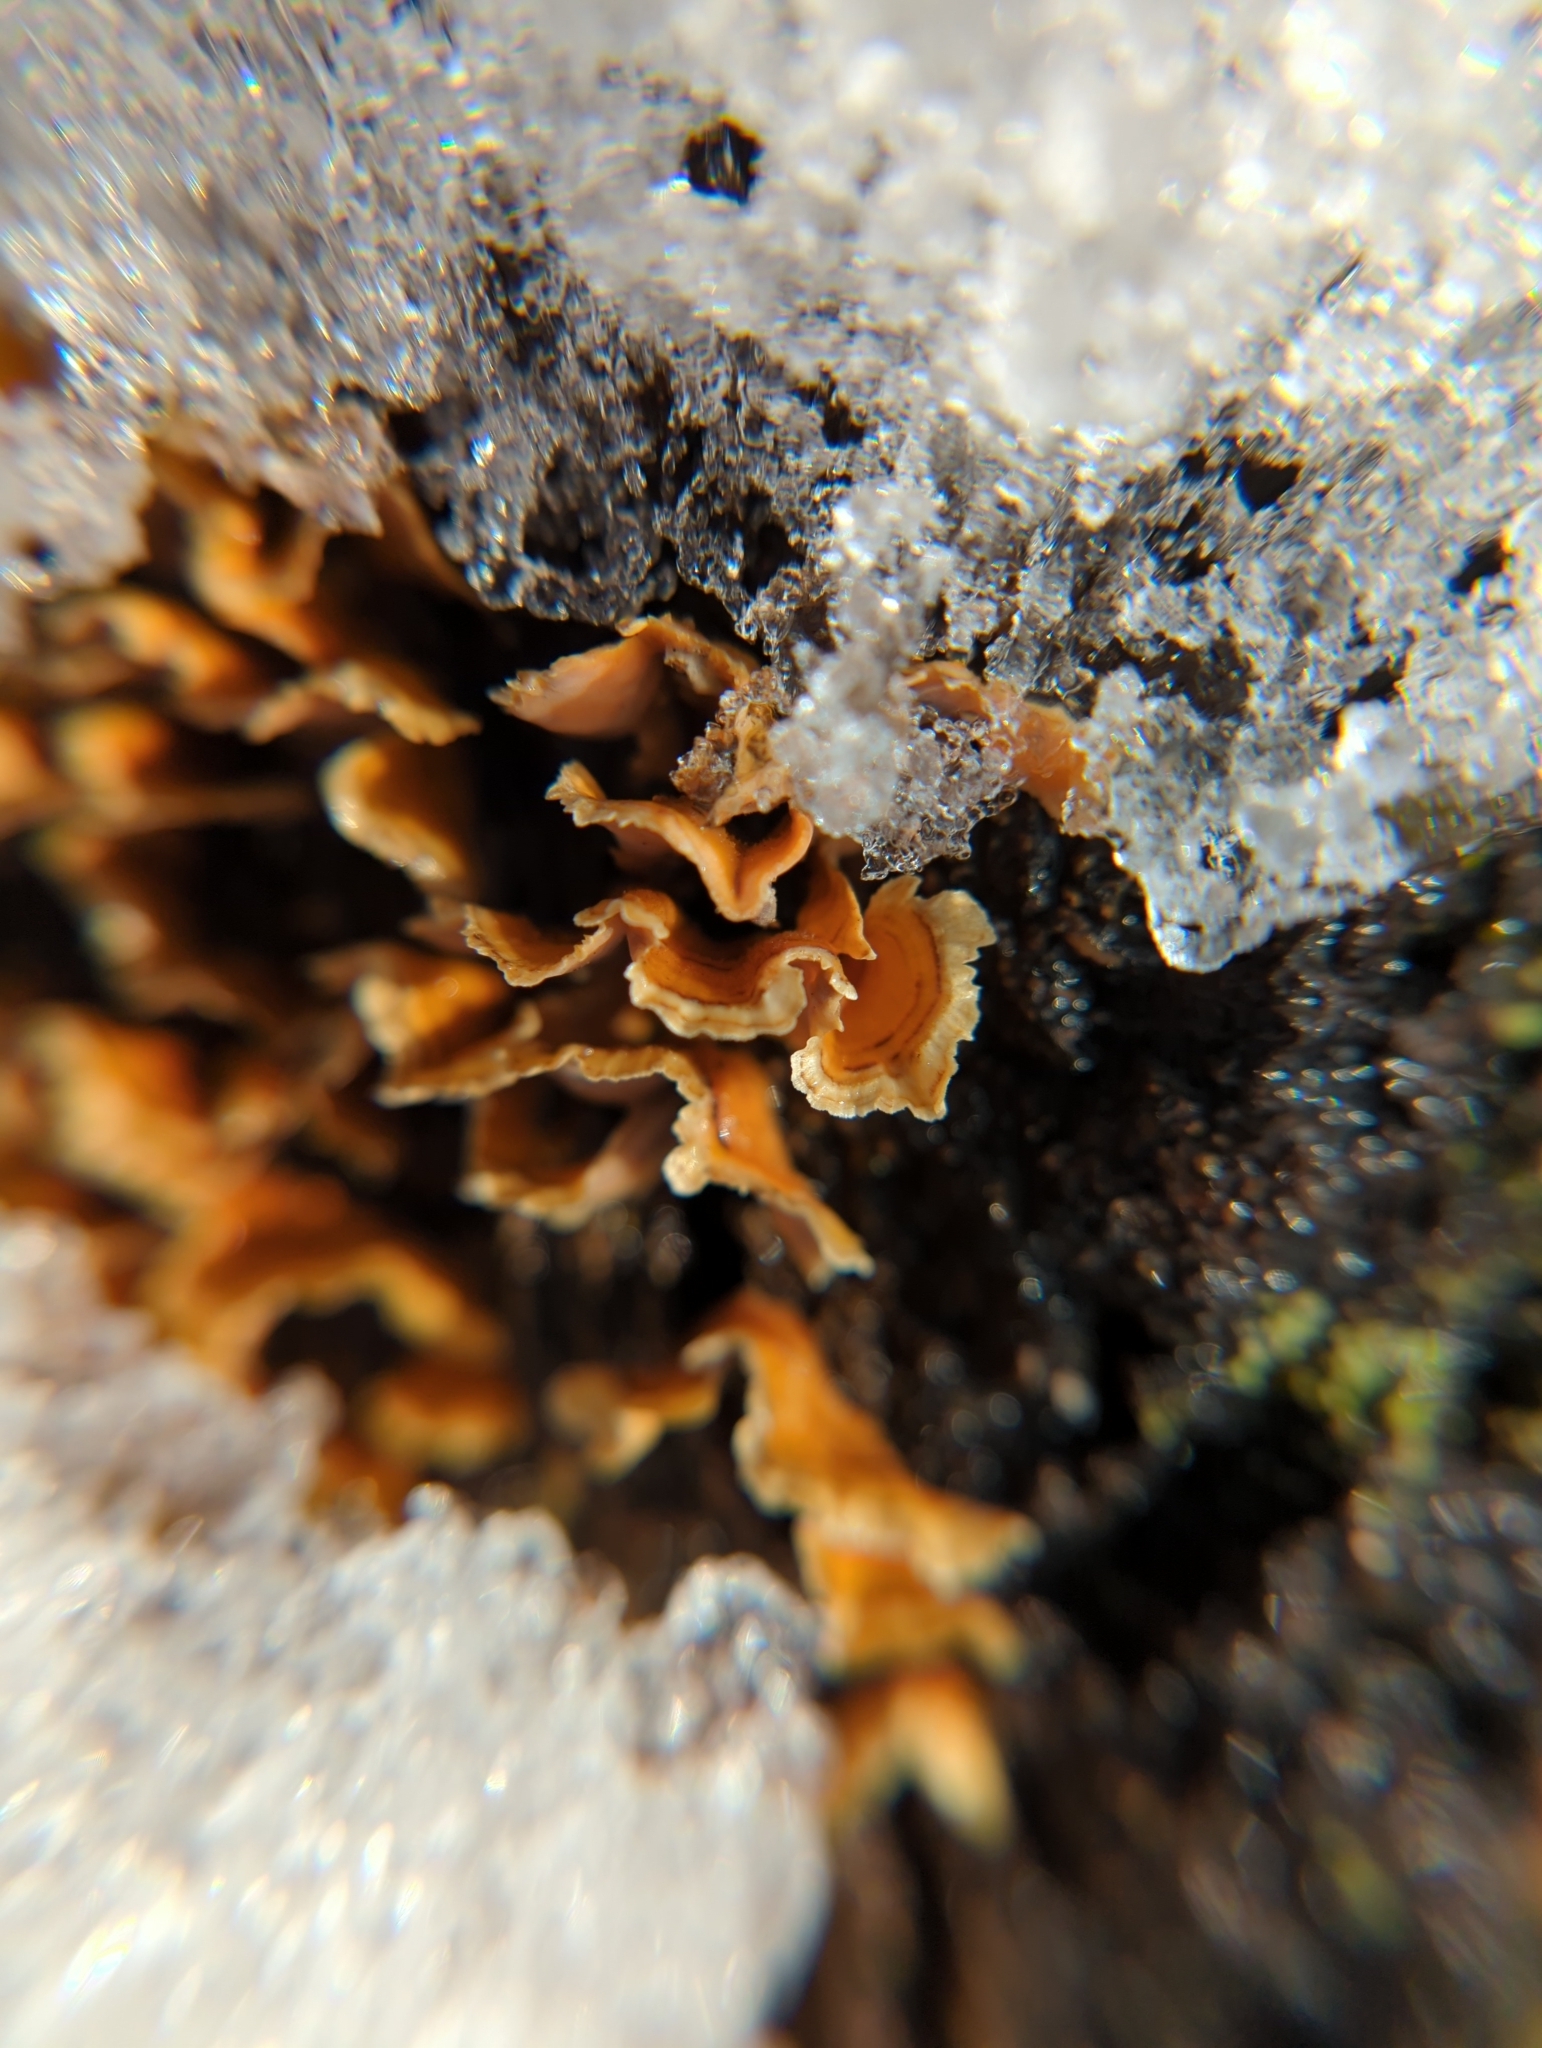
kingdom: Fungi
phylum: Basidiomycota
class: Agaricomycetes
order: Russulales
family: Stereaceae
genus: Stereum
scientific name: Stereum complicatum
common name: Crowded parchment
